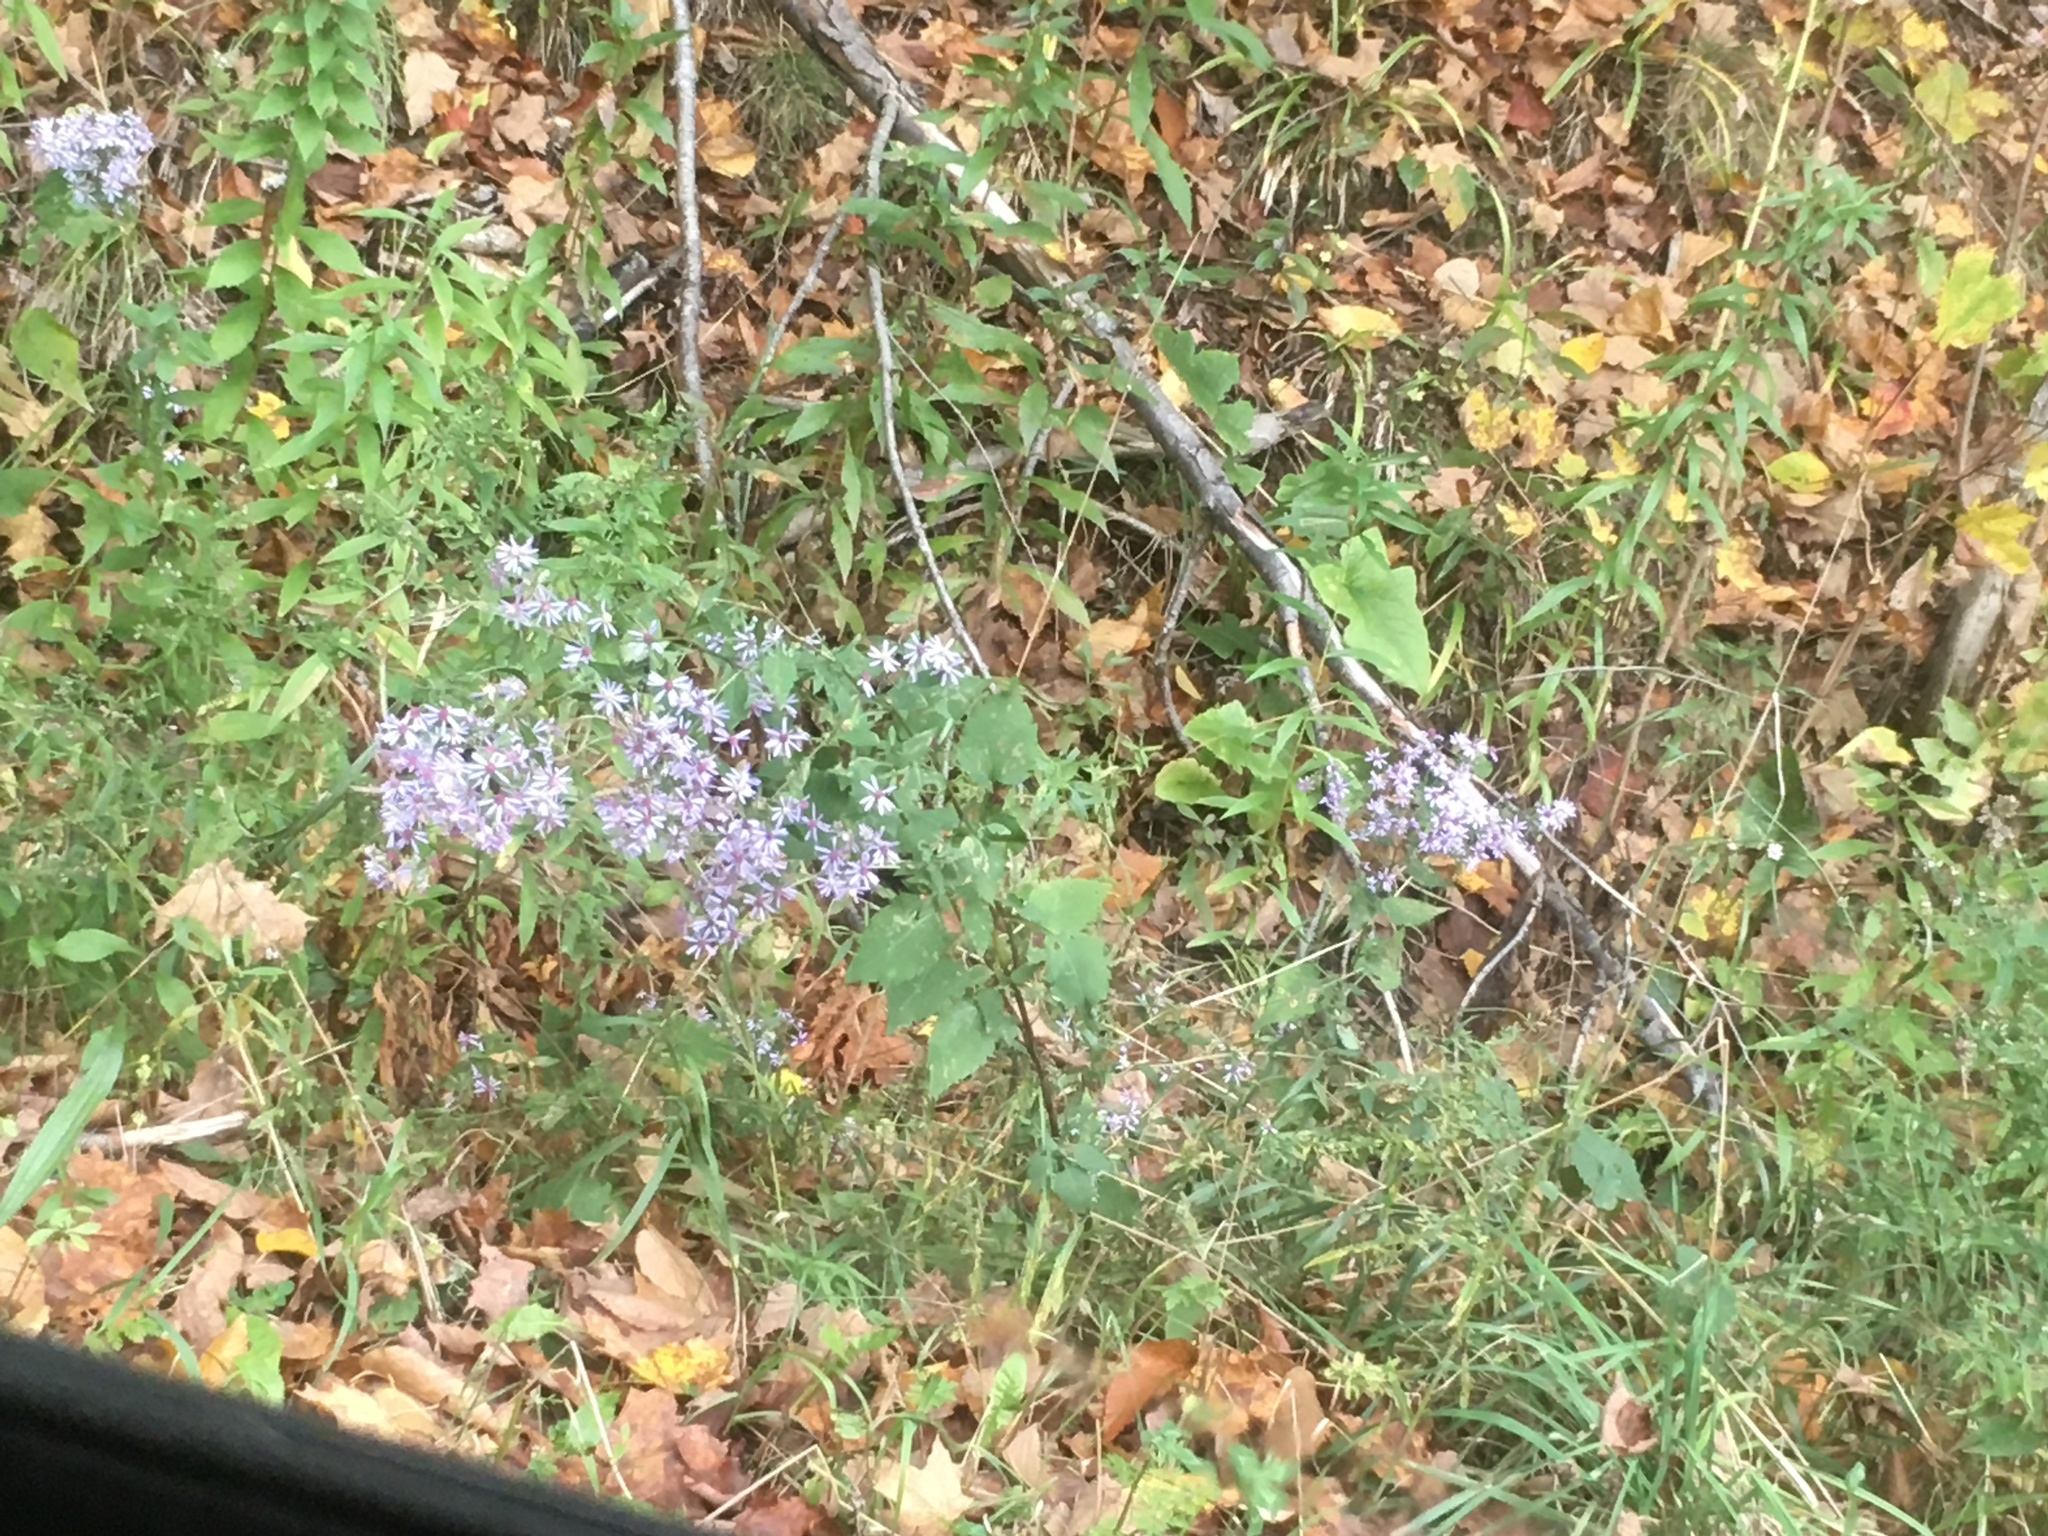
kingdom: Plantae
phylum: Tracheophyta
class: Magnoliopsida
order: Asterales
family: Asteraceae
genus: Symphyotrichum
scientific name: Symphyotrichum cordifolium
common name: Beeweed
